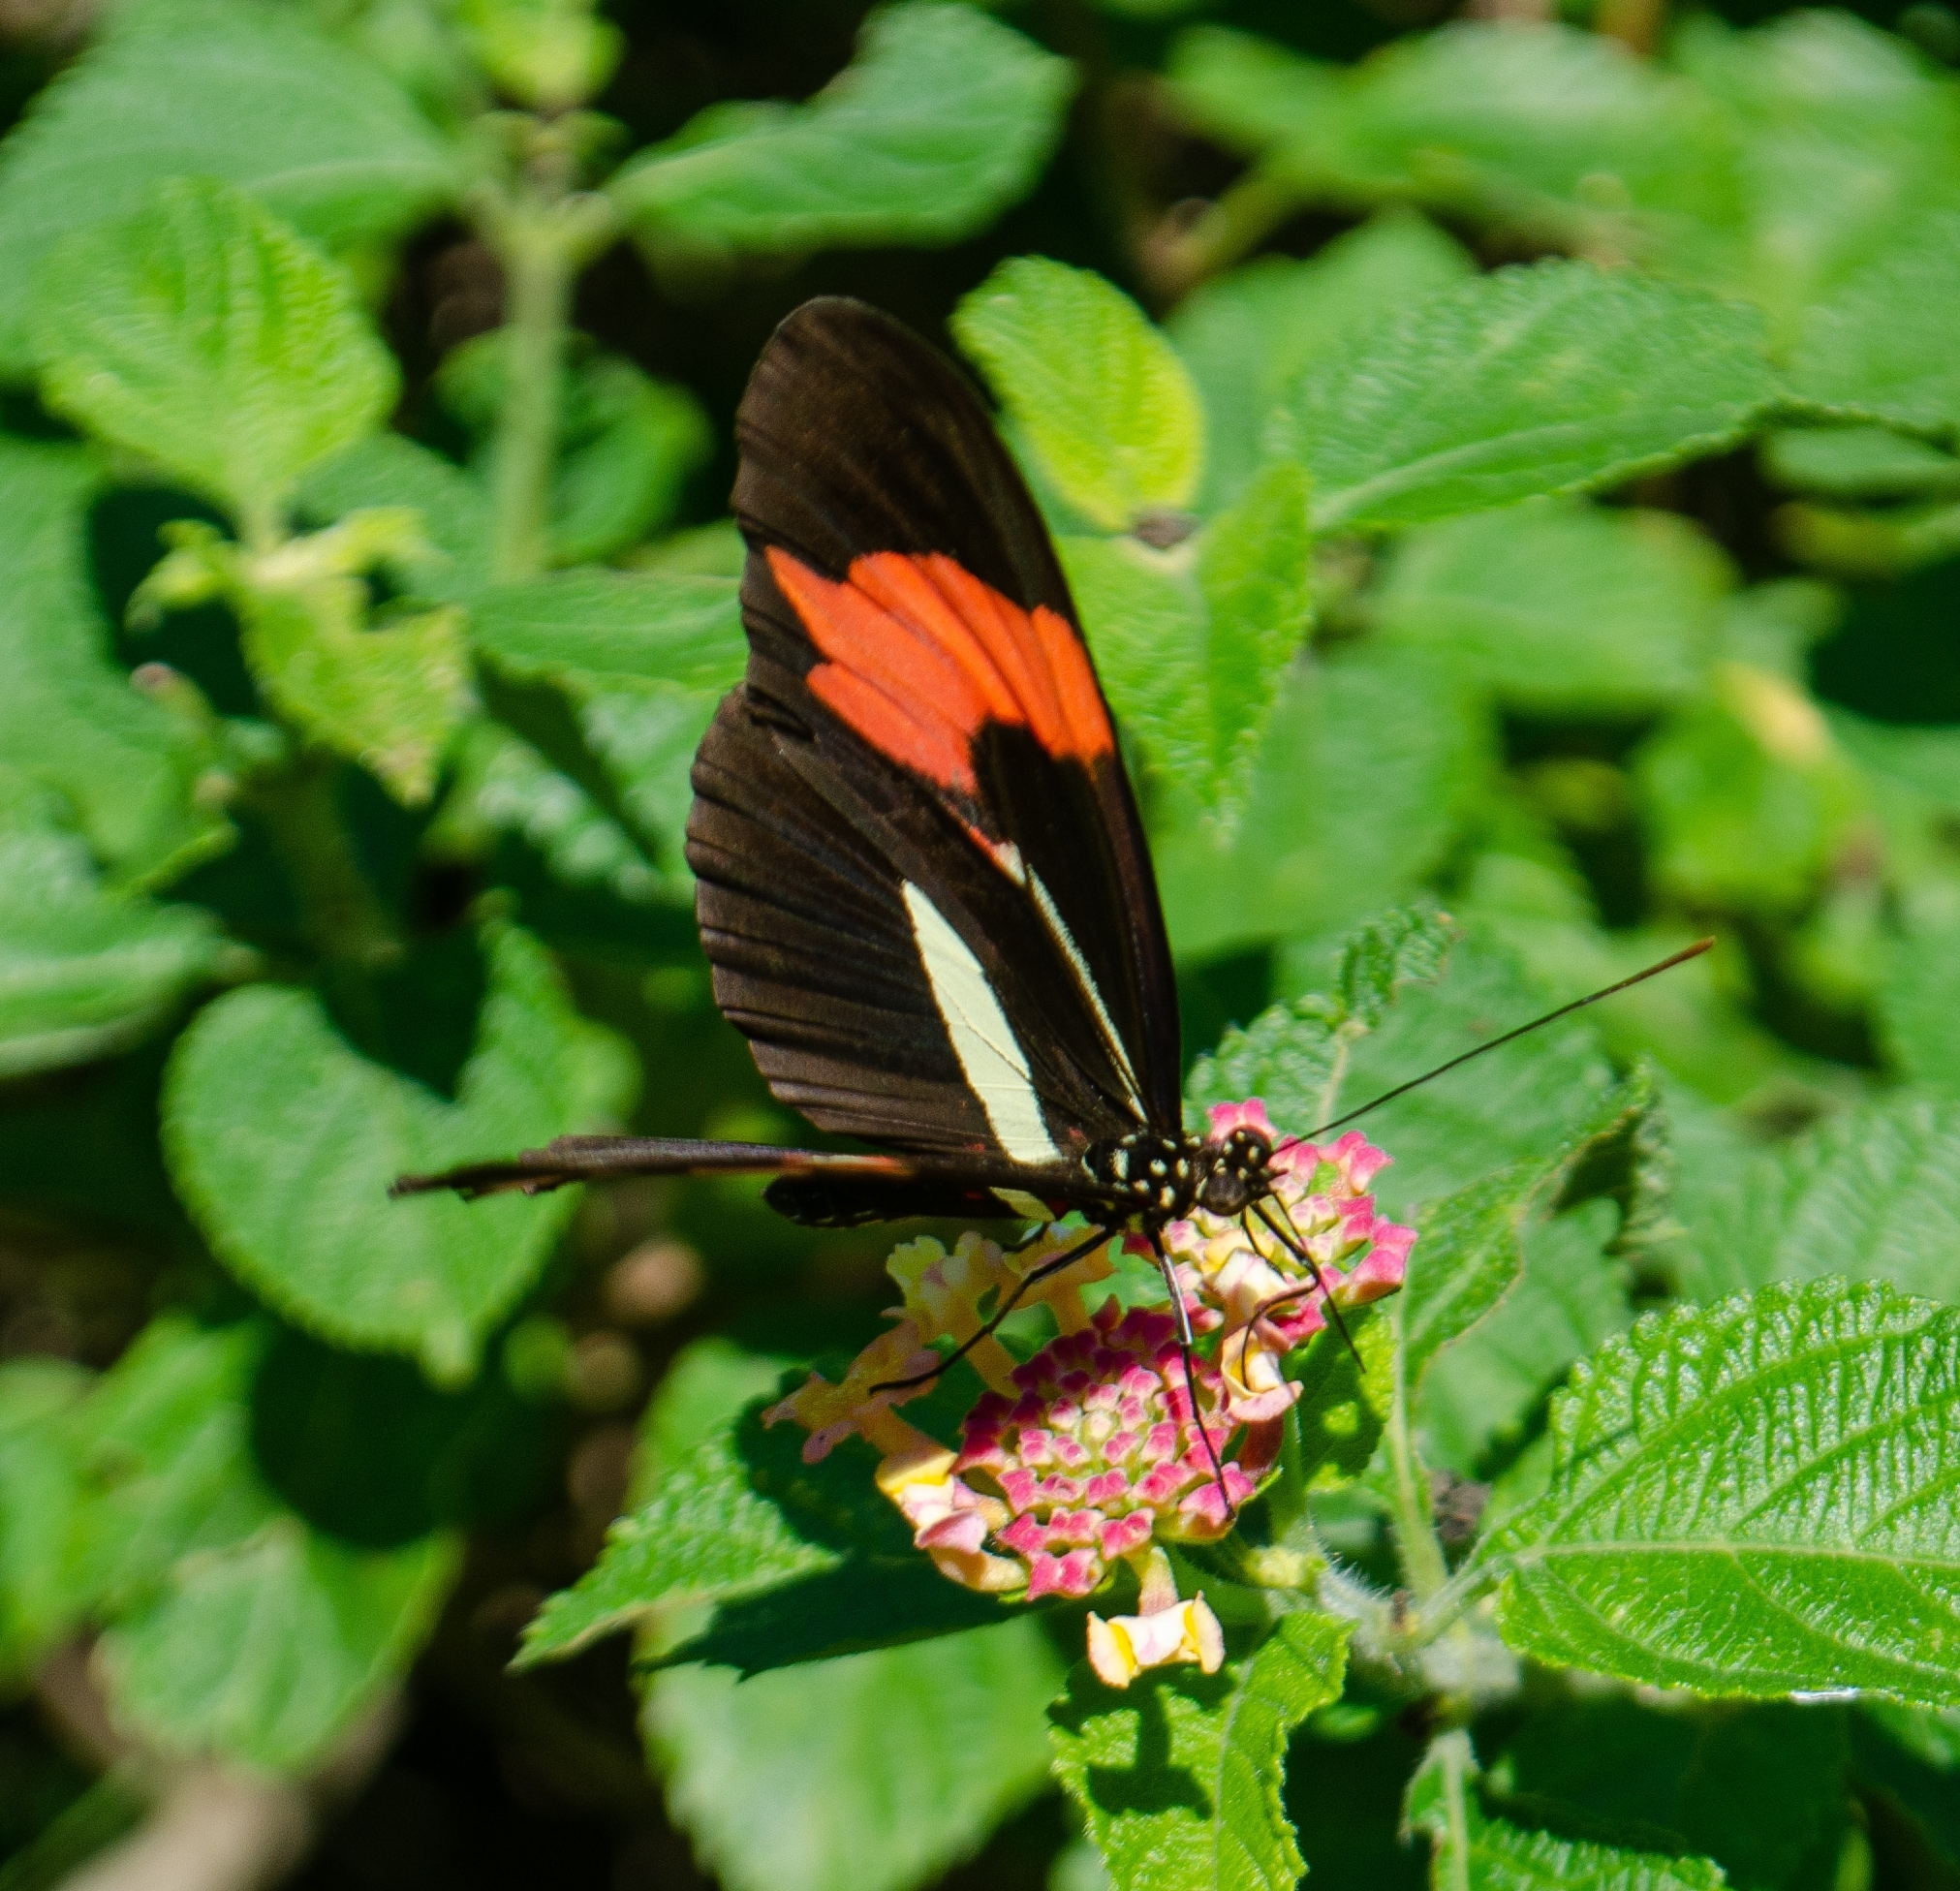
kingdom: Animalia
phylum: Arthropoda
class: Insecta
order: Lepidoptera
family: Nymphalidae
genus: Heliconius
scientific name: Heliconius erato
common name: Common patch longwing
